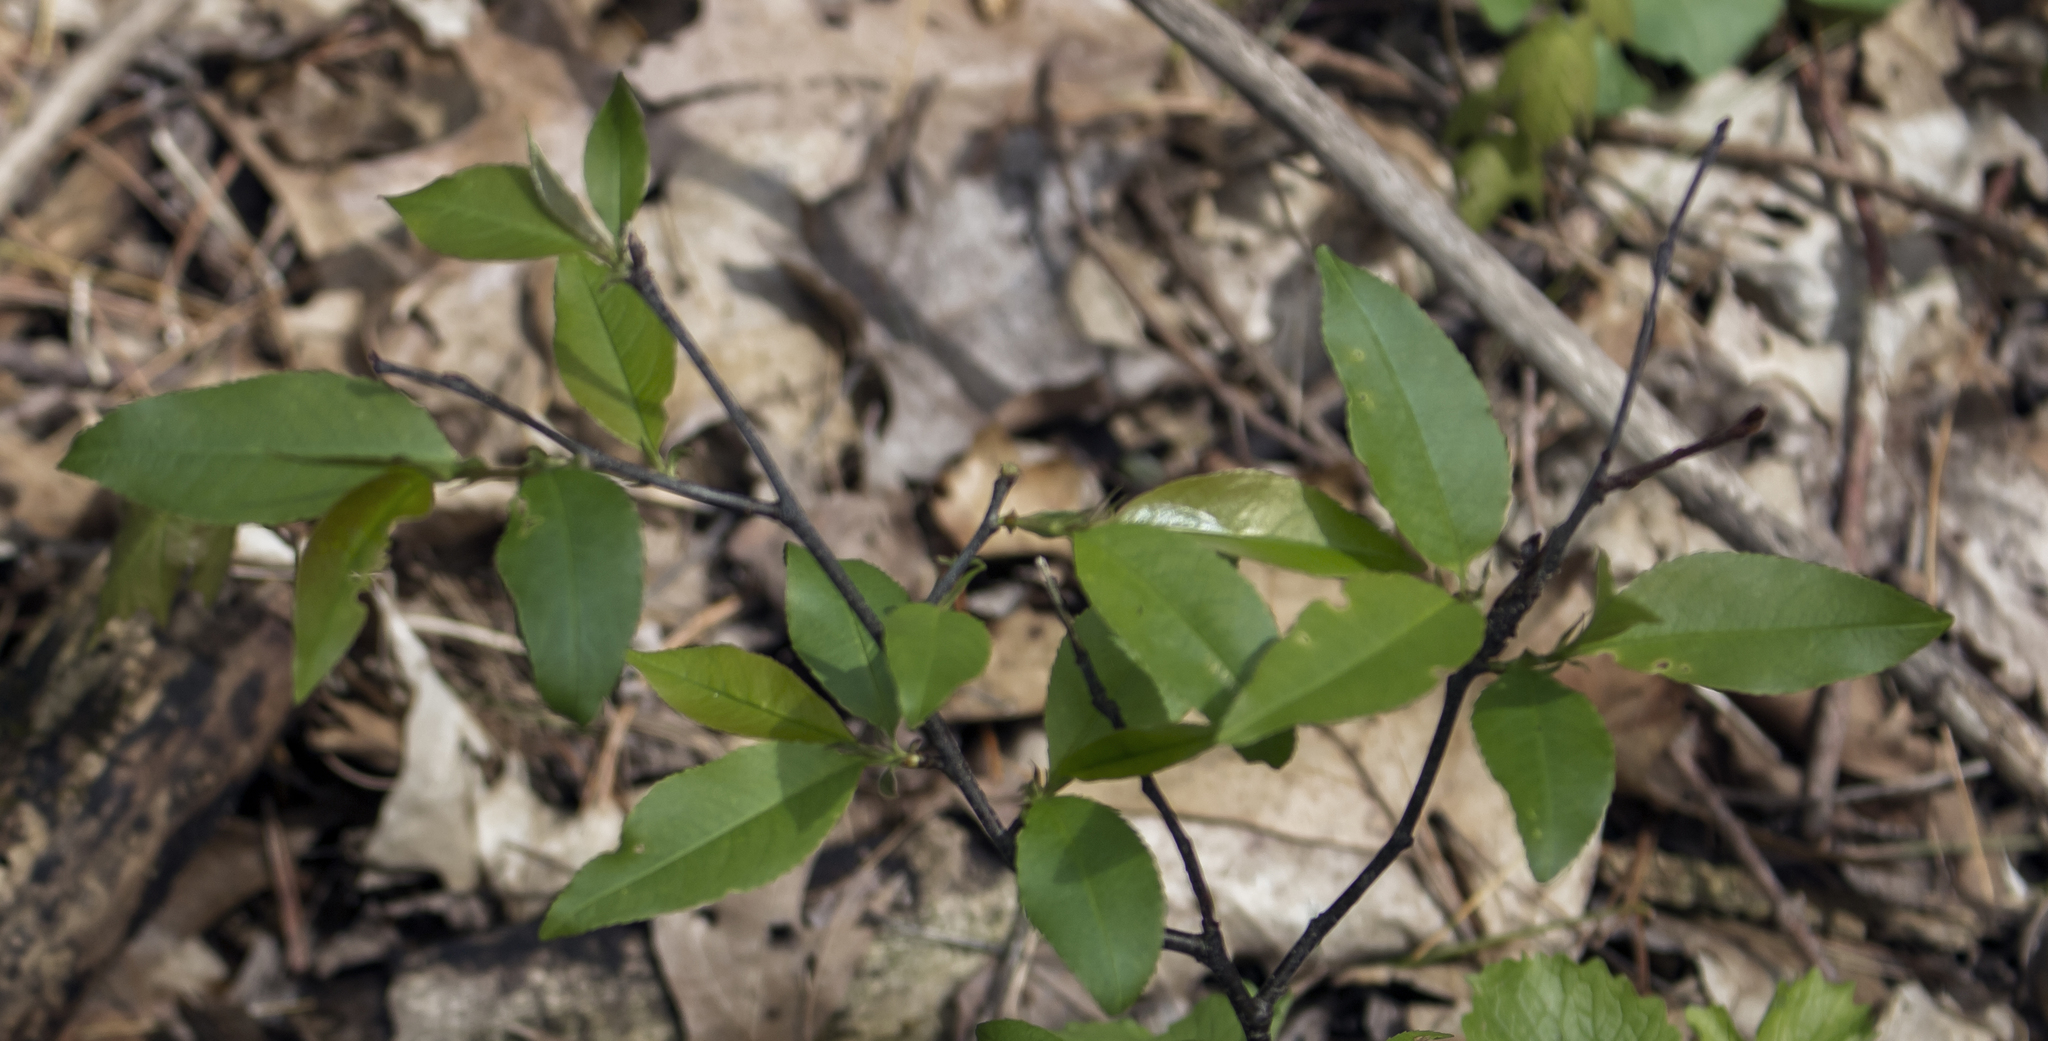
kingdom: Plantae
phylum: Tracheophyta
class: Magnoliopsida
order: Rosales
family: Rosaceae
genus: Prunus
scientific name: Prunus serotina
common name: Black cherry
